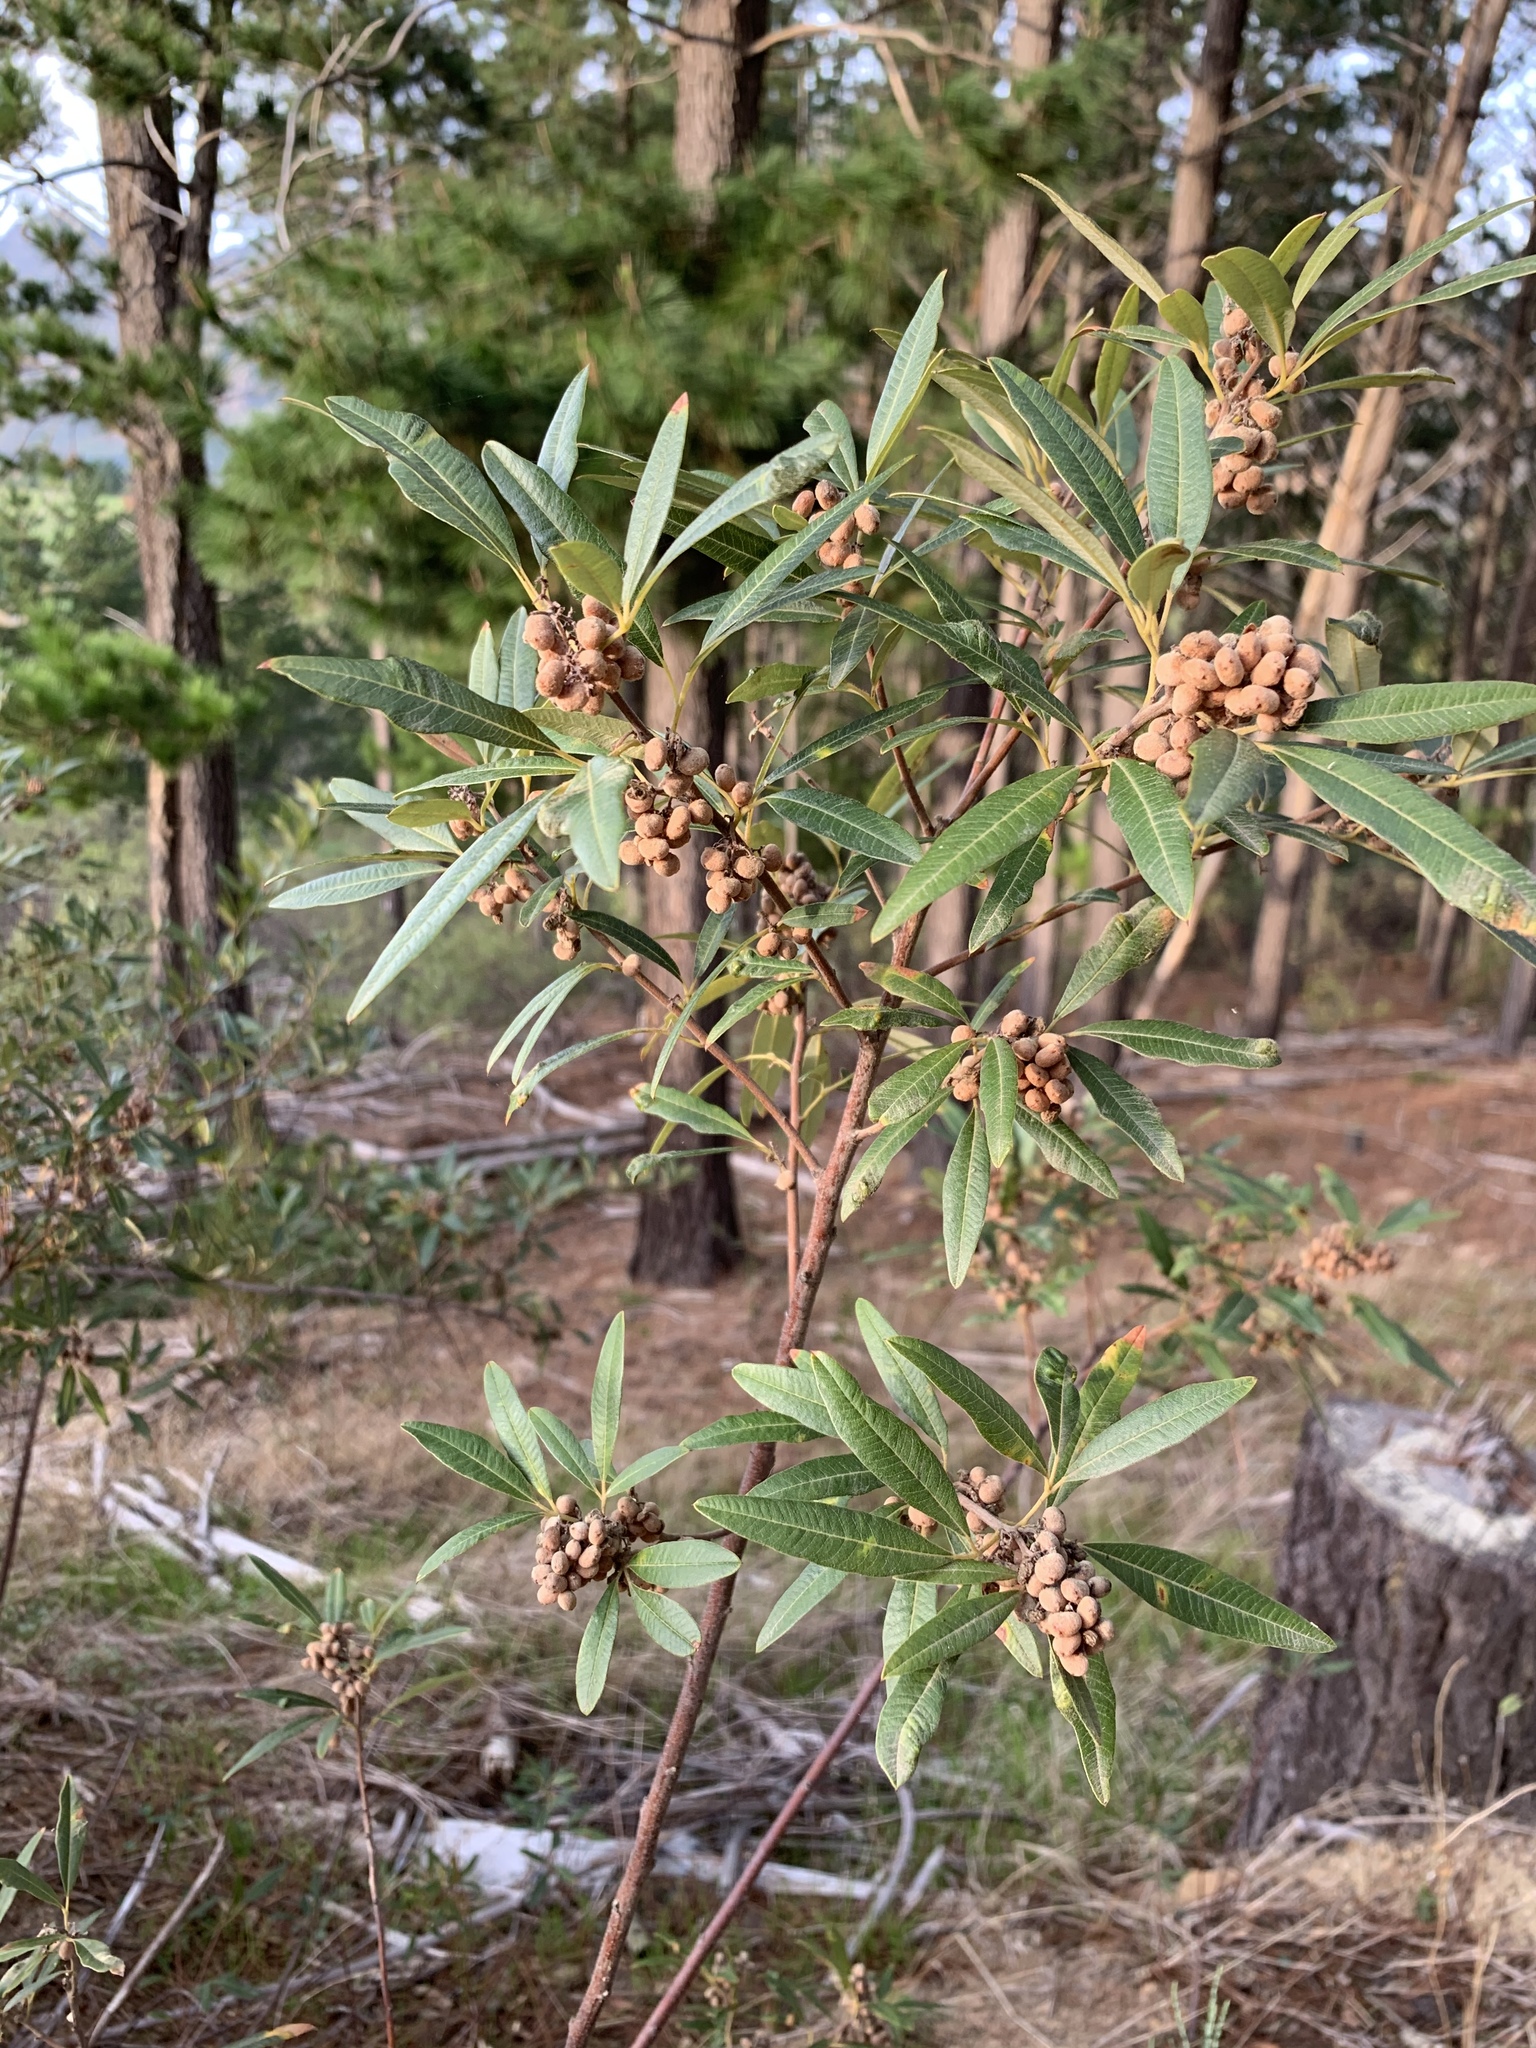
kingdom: Plantae
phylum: Tracheophyta
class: Magnoliopsida
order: Sapindales
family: Anacardiaceae
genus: Searsia
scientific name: Searsia angustifolia
